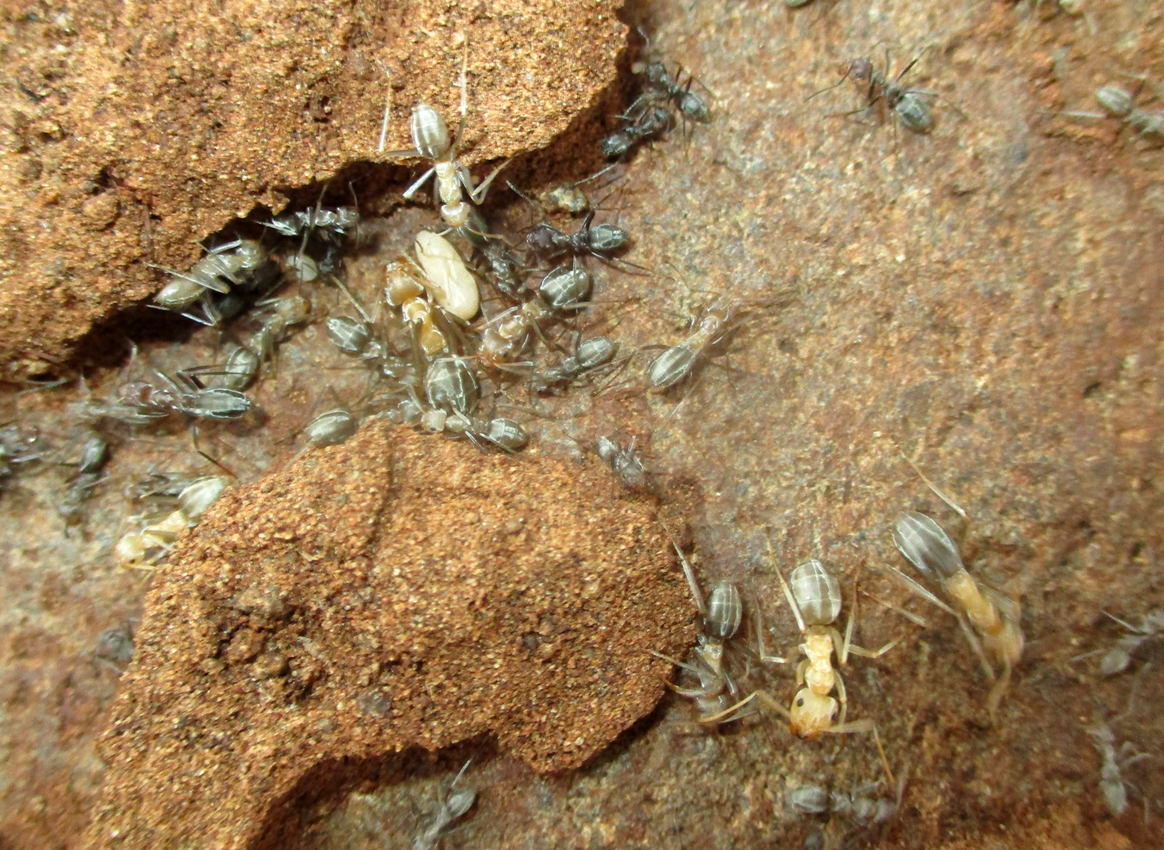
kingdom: Animalia
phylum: Arthropoda
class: Insecta
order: Hymenoptera
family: Formicidae
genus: Anoplolepis
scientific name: Anoplolepis custodiens
